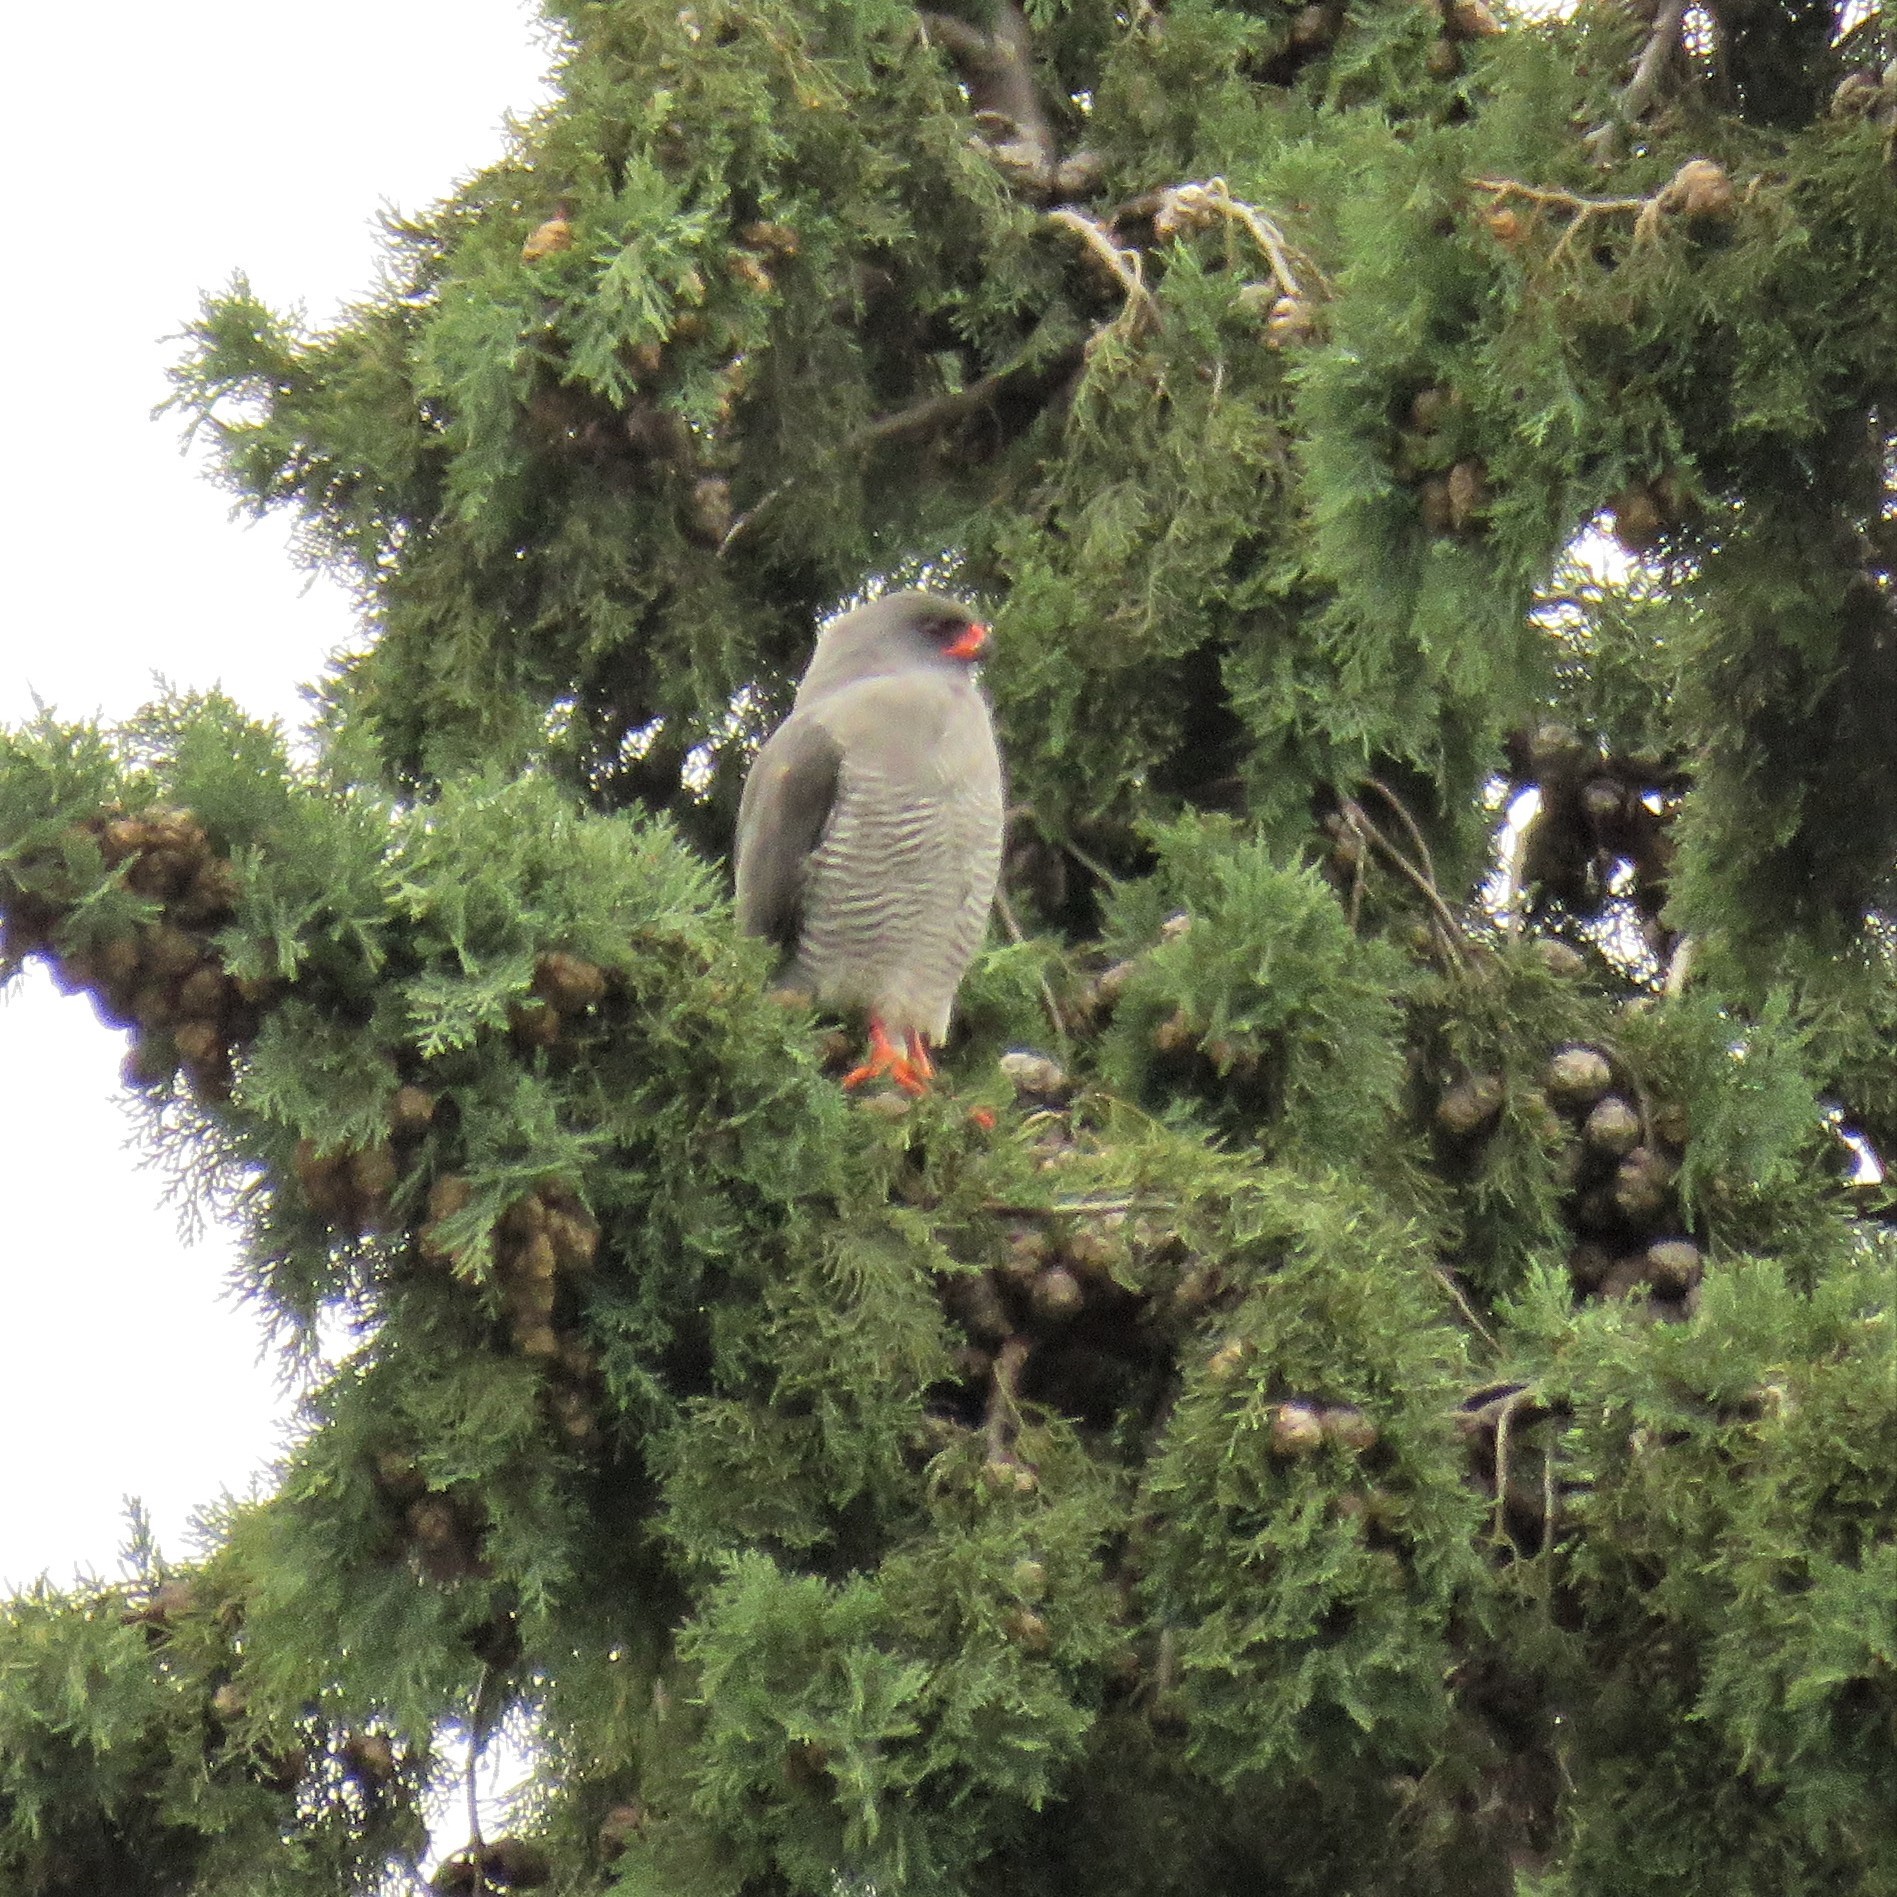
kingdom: Animalia
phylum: Chordata
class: Aves
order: Accipitriformes
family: Accipitridae
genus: Micronisus
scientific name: Micronisus gabar
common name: Gabar goshawk
